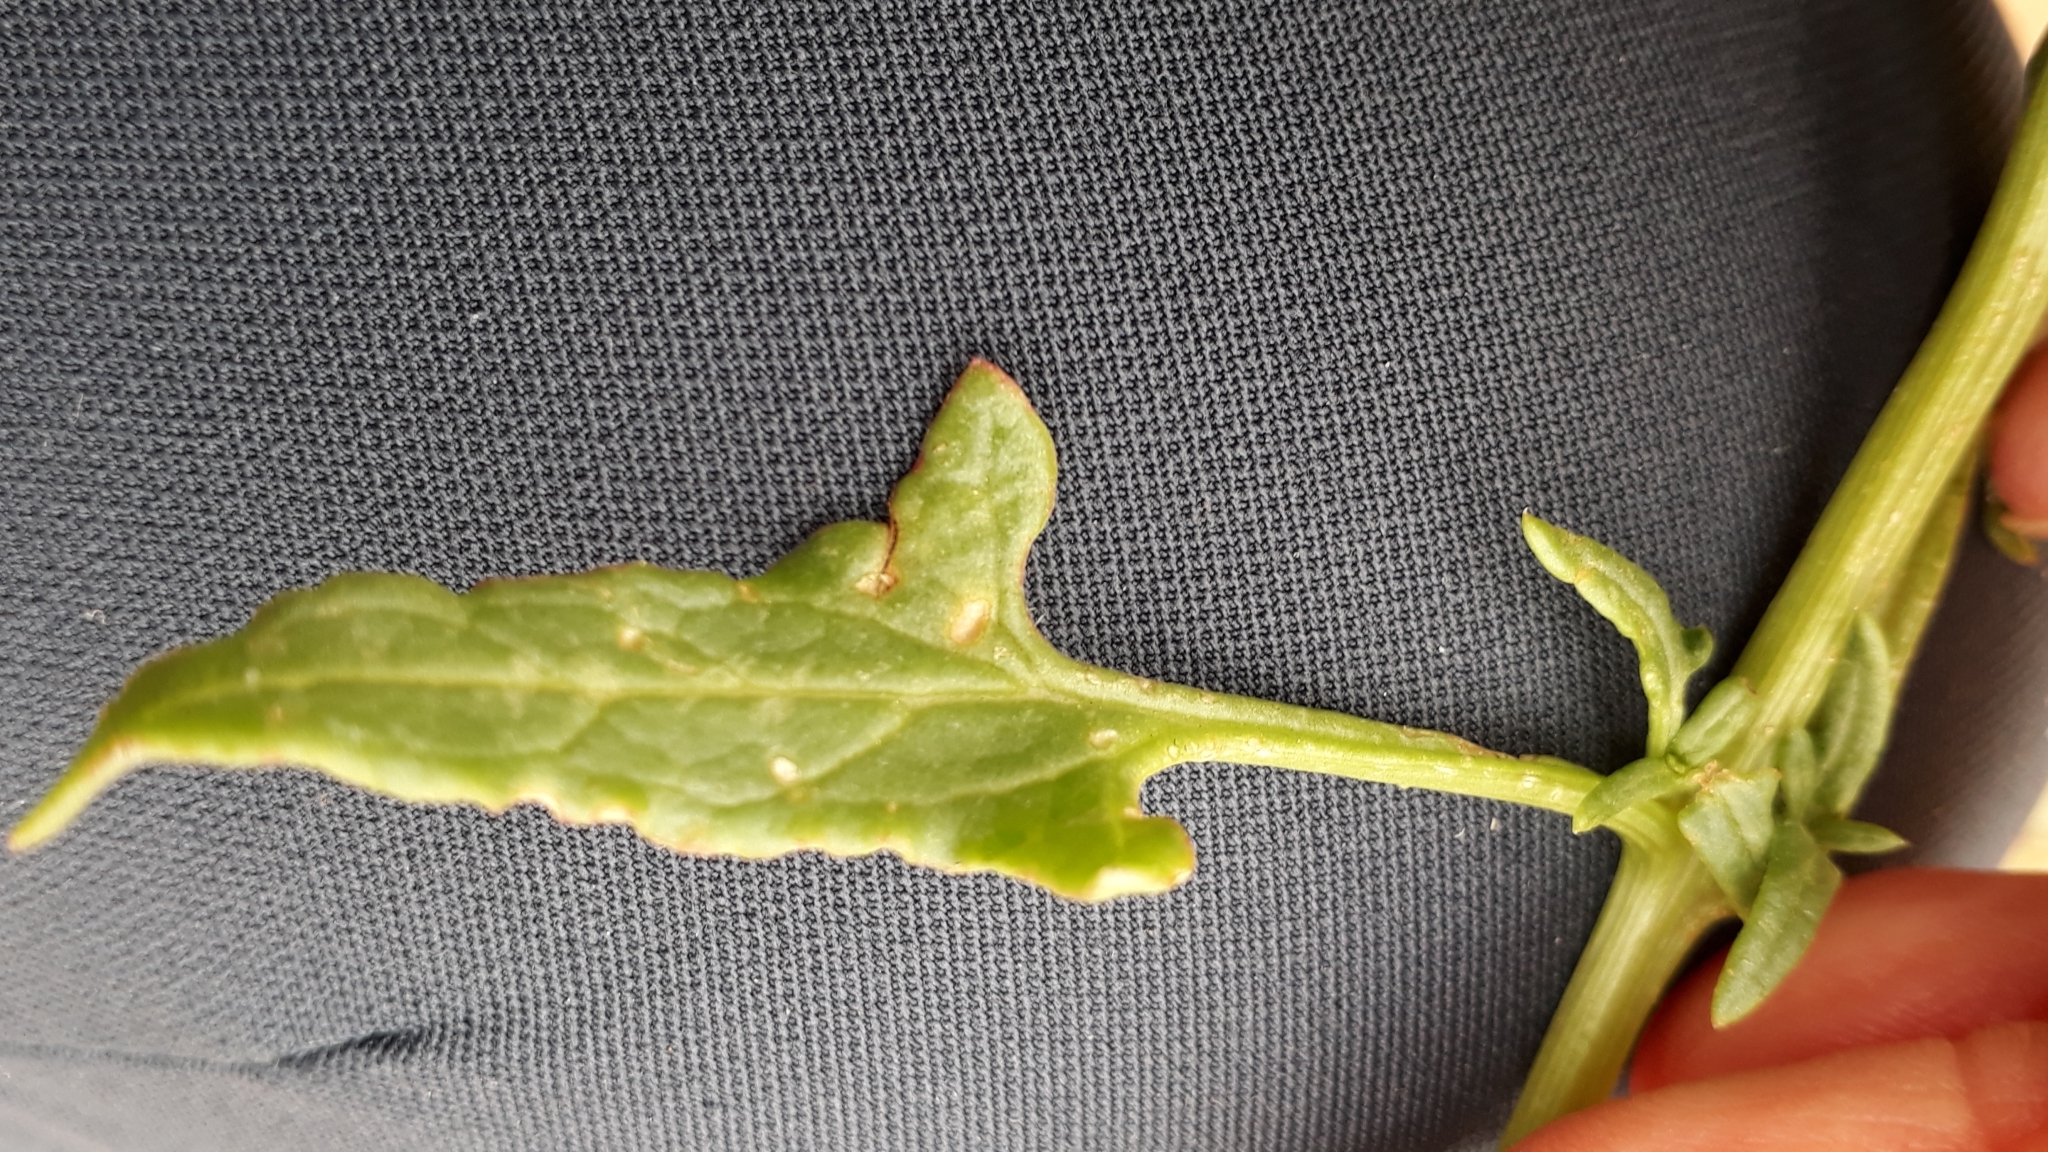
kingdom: Plantae
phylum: Tracheophyta
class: Magnoliopsida
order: Caryophyllales
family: Amaranthaceae
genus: Patellifolia
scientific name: Patellifolia procumbens
